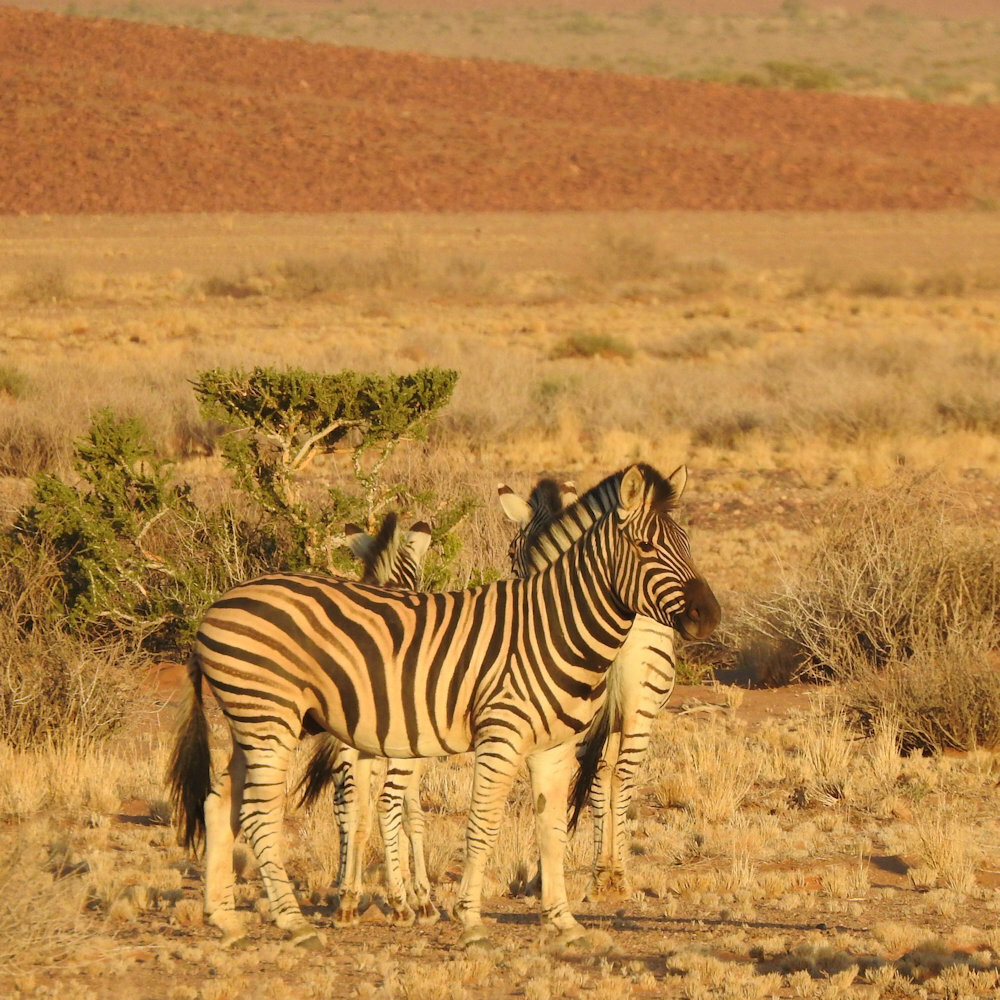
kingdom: Animalia
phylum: Chordata
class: Mammalia
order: Perissodactyla
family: Equidae
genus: Equus
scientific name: Equus quagga
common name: Plains zebra
